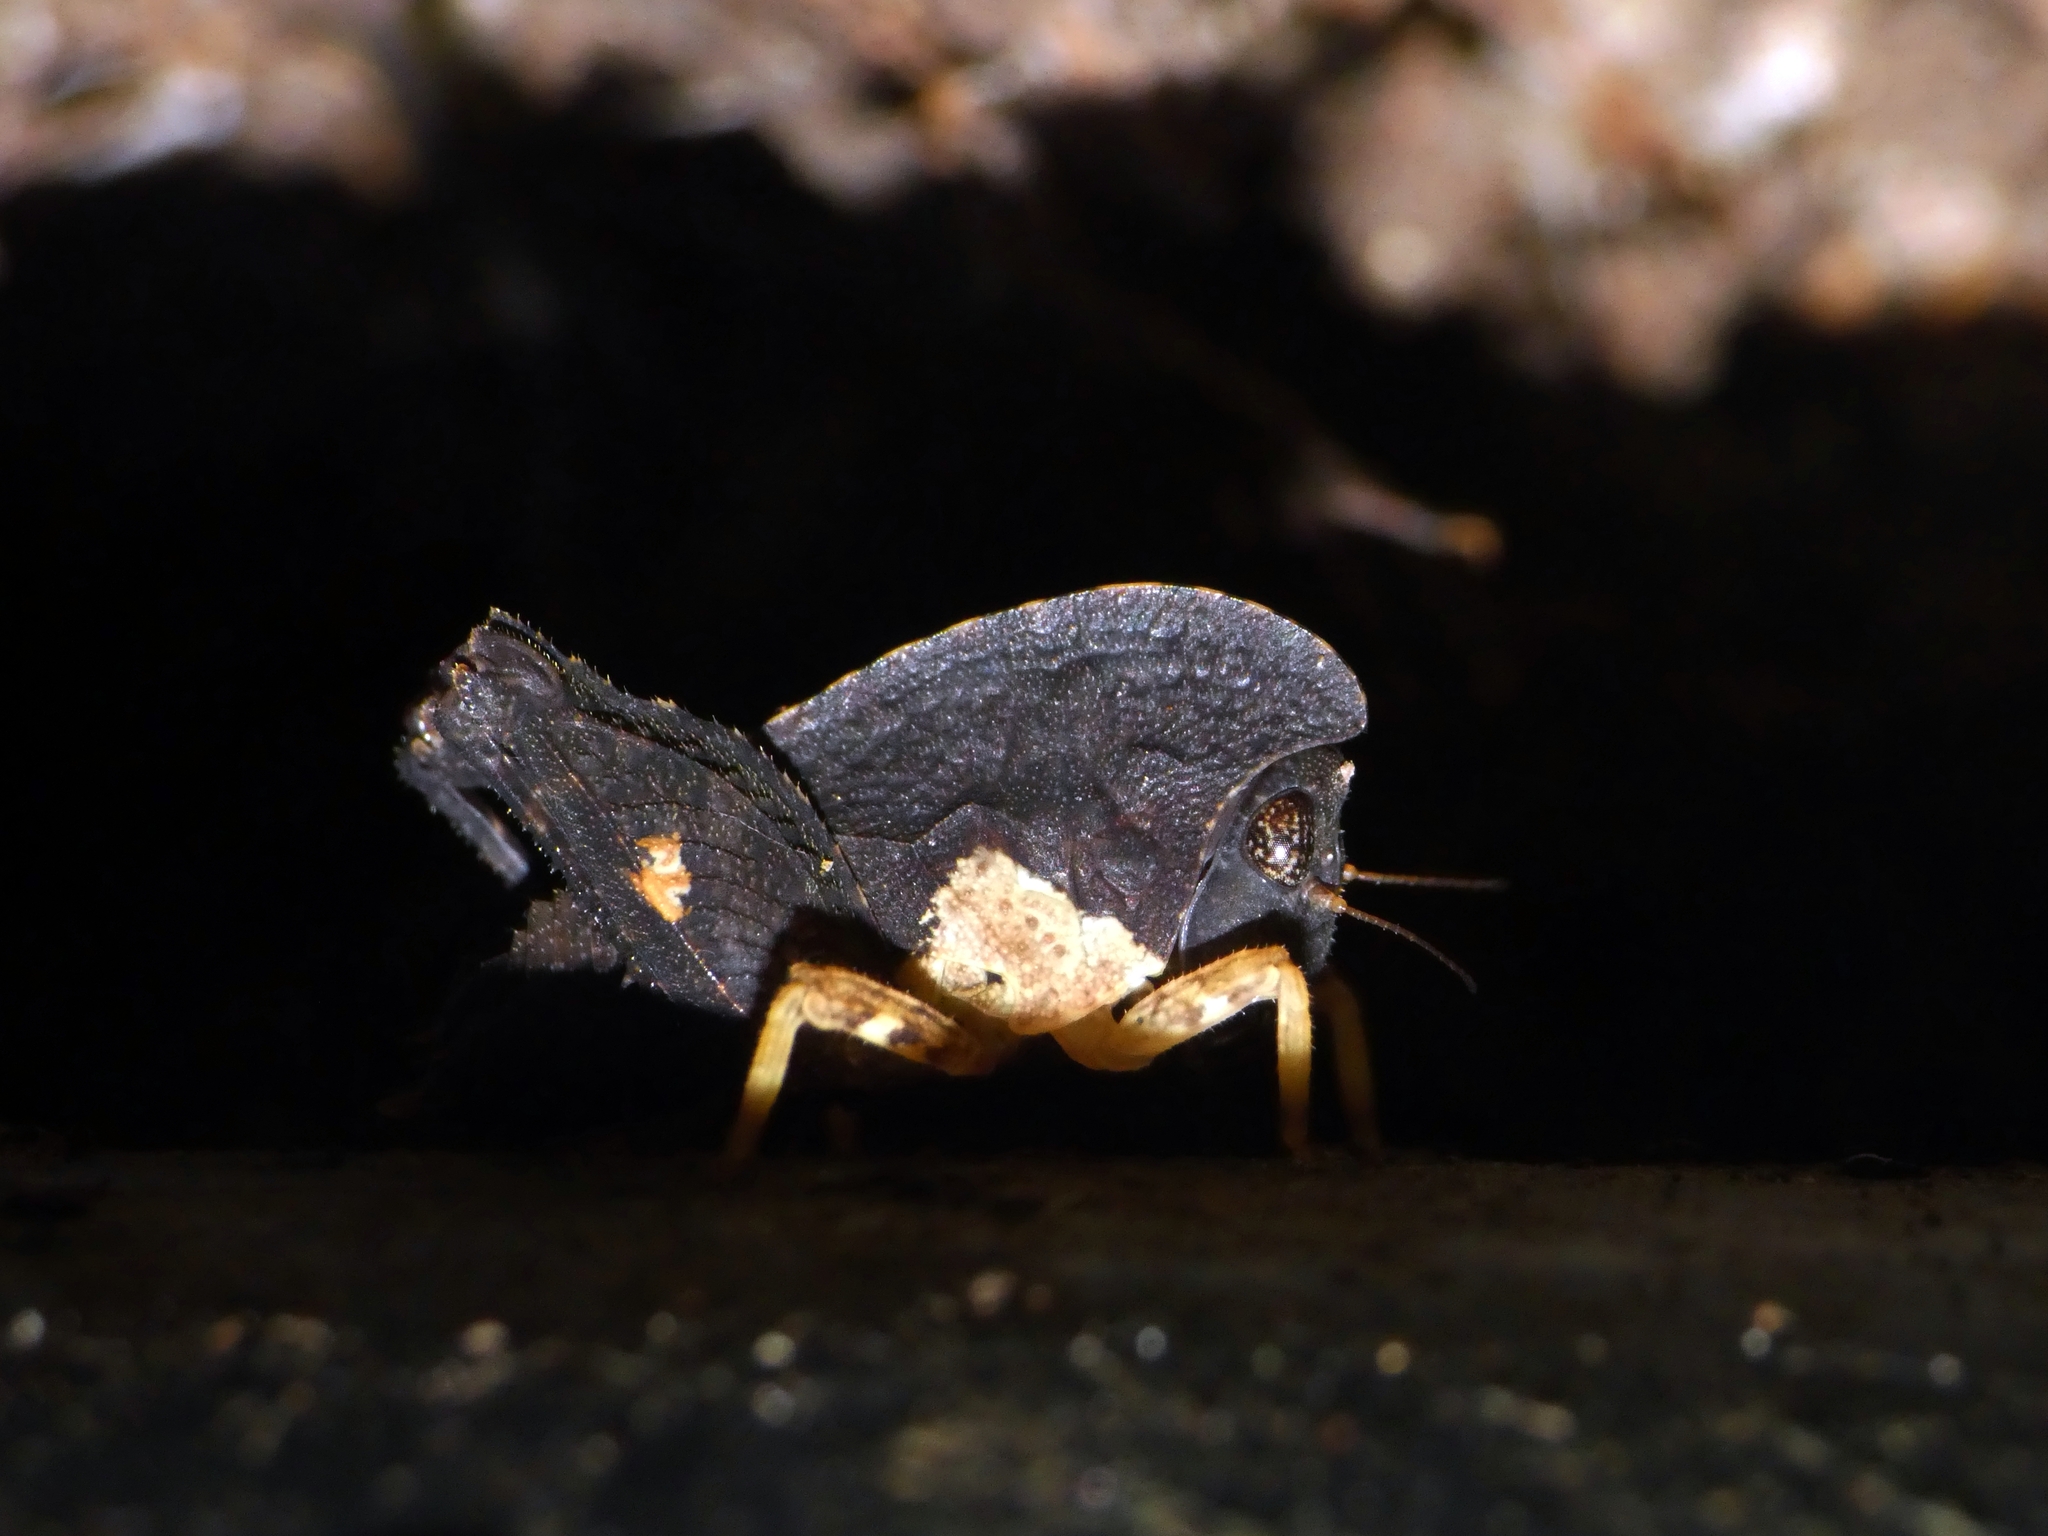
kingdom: Animalia
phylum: Arthropoda
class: Insecta
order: Orthoptera
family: Tetrigidae
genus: Selivinga
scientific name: Selivinga tribulata
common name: Tribulation helmed groundhopper
